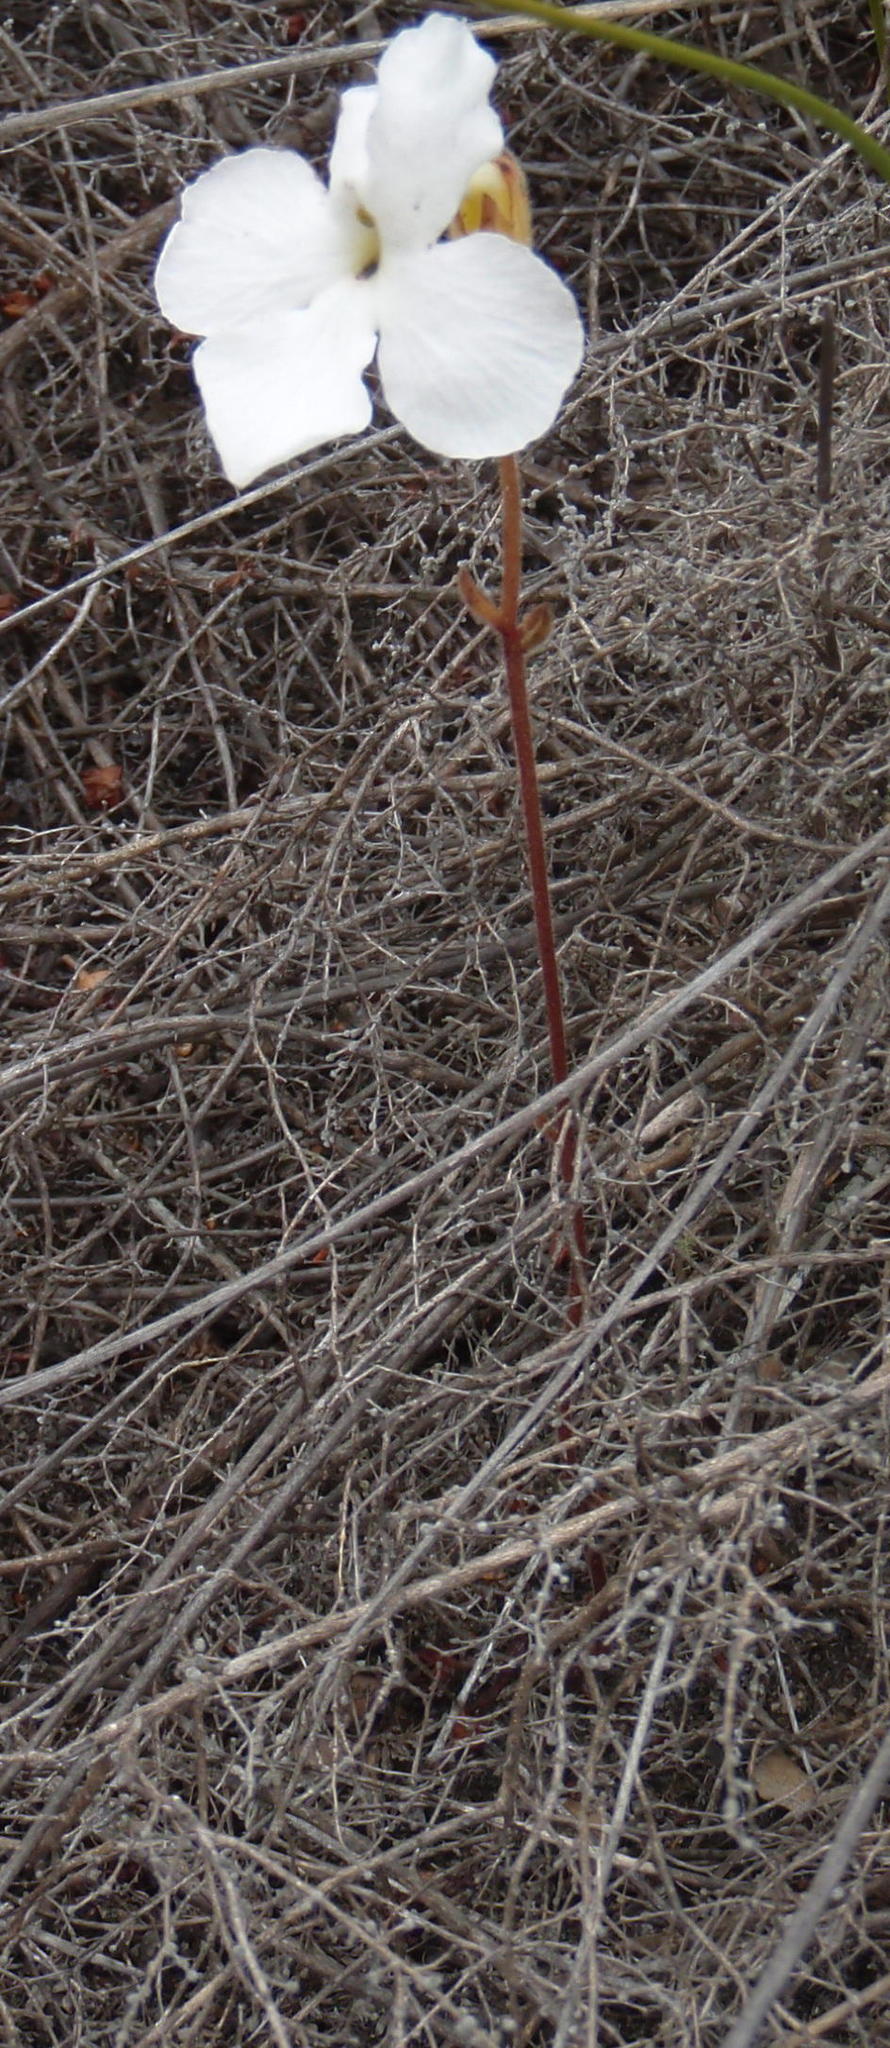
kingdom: Plantae
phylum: Tracheophyta
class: Magnoliopsida
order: Lamiales
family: Orobanchaceae
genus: Harveya
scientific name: Harveya capensis
